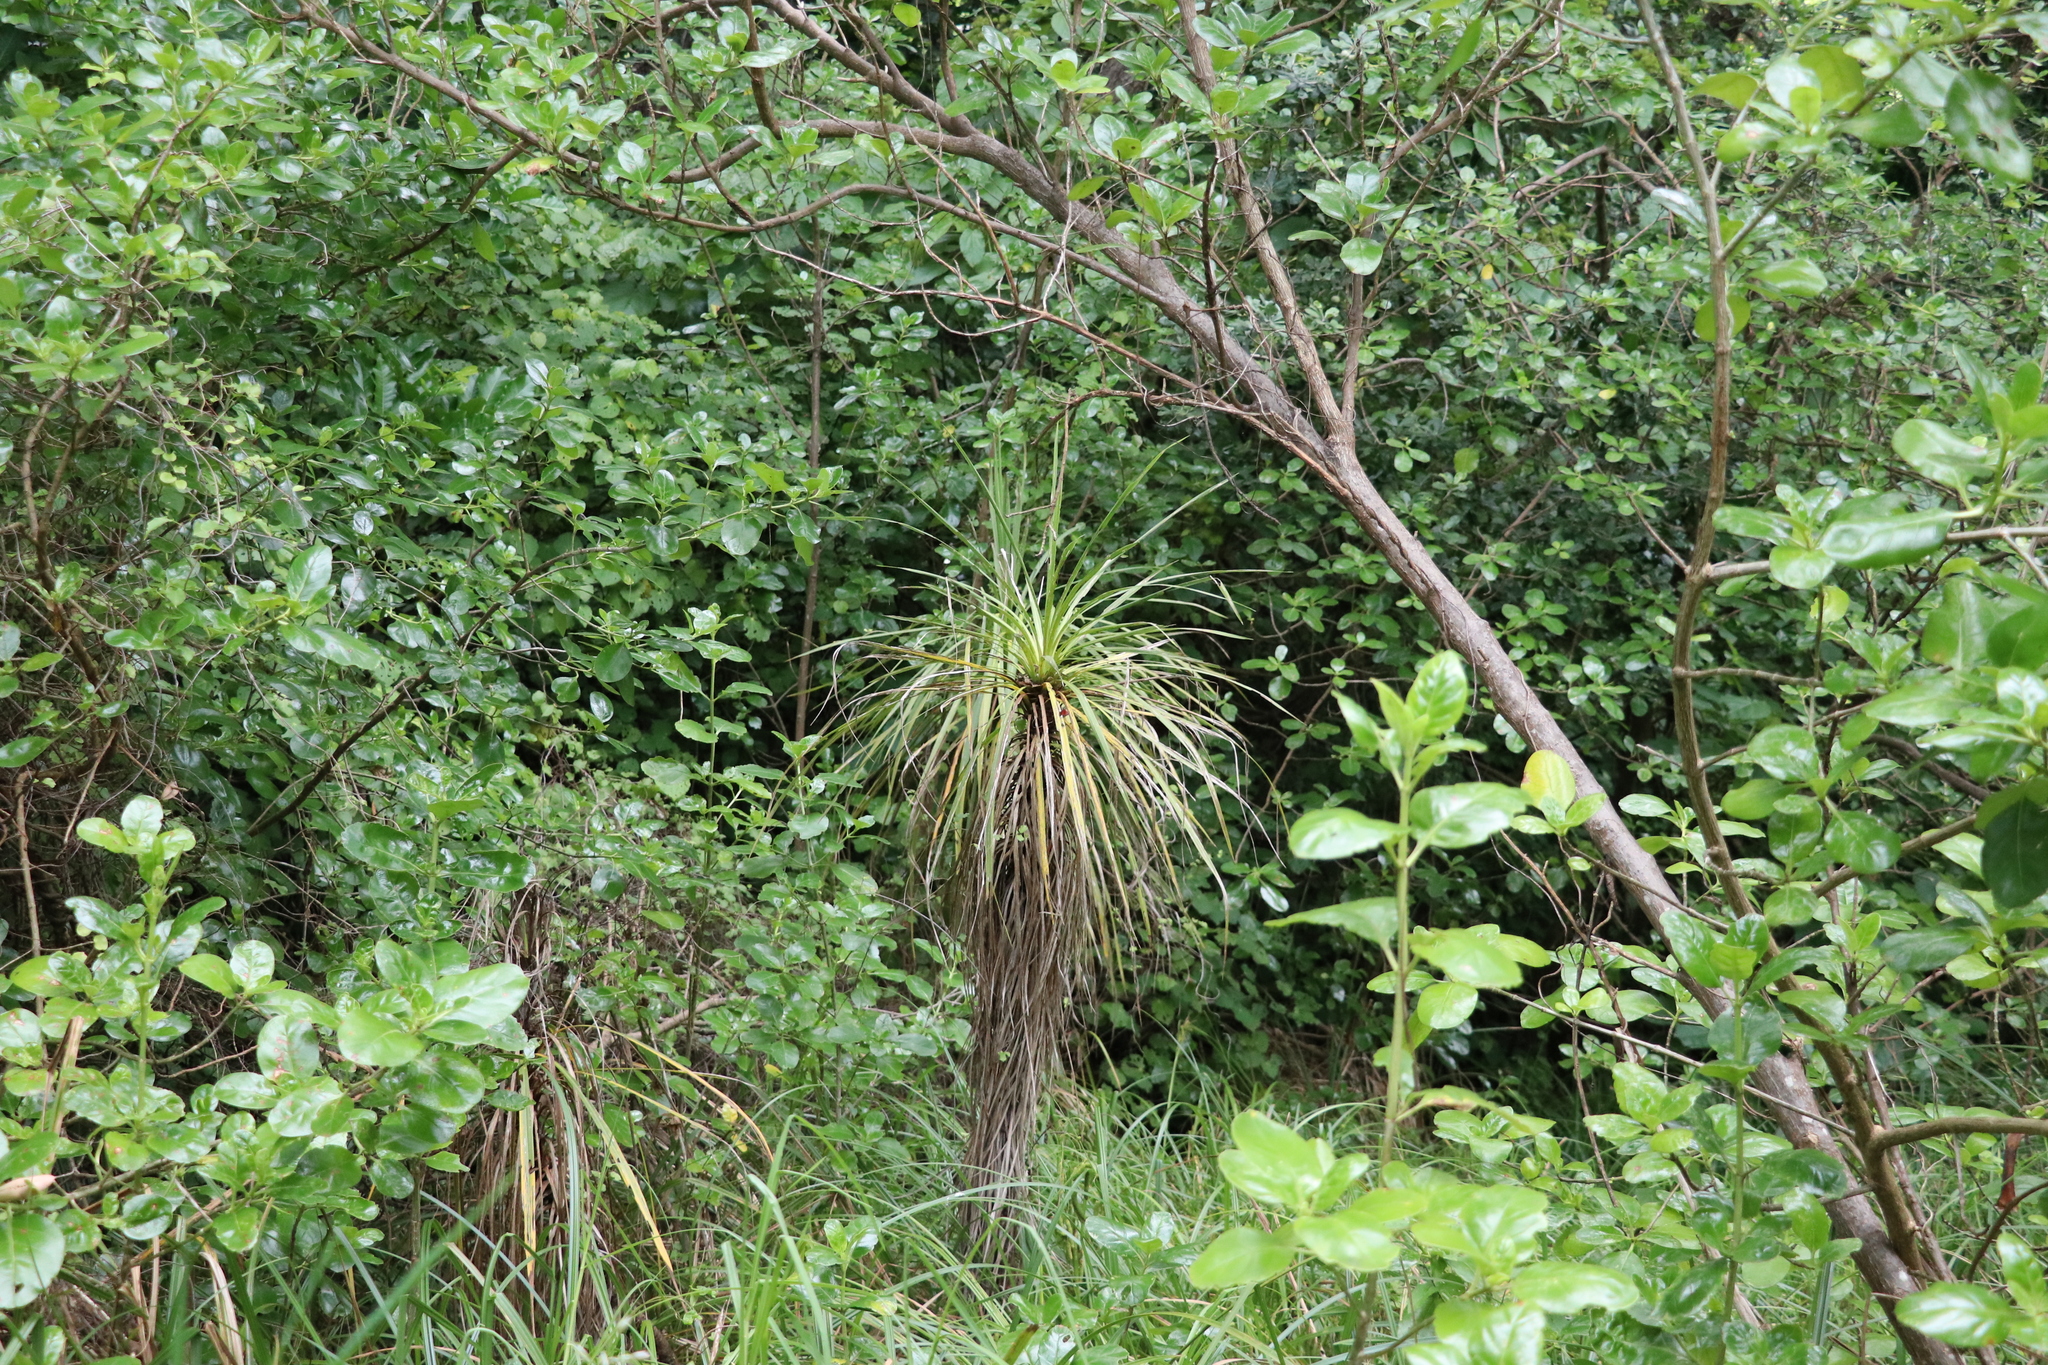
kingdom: Plantae
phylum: Tracheophyta
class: Liliopsida
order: Asparagales
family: Asparagaceae
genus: Cordyline
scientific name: Cordyline australis
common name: Cabbage-palm
